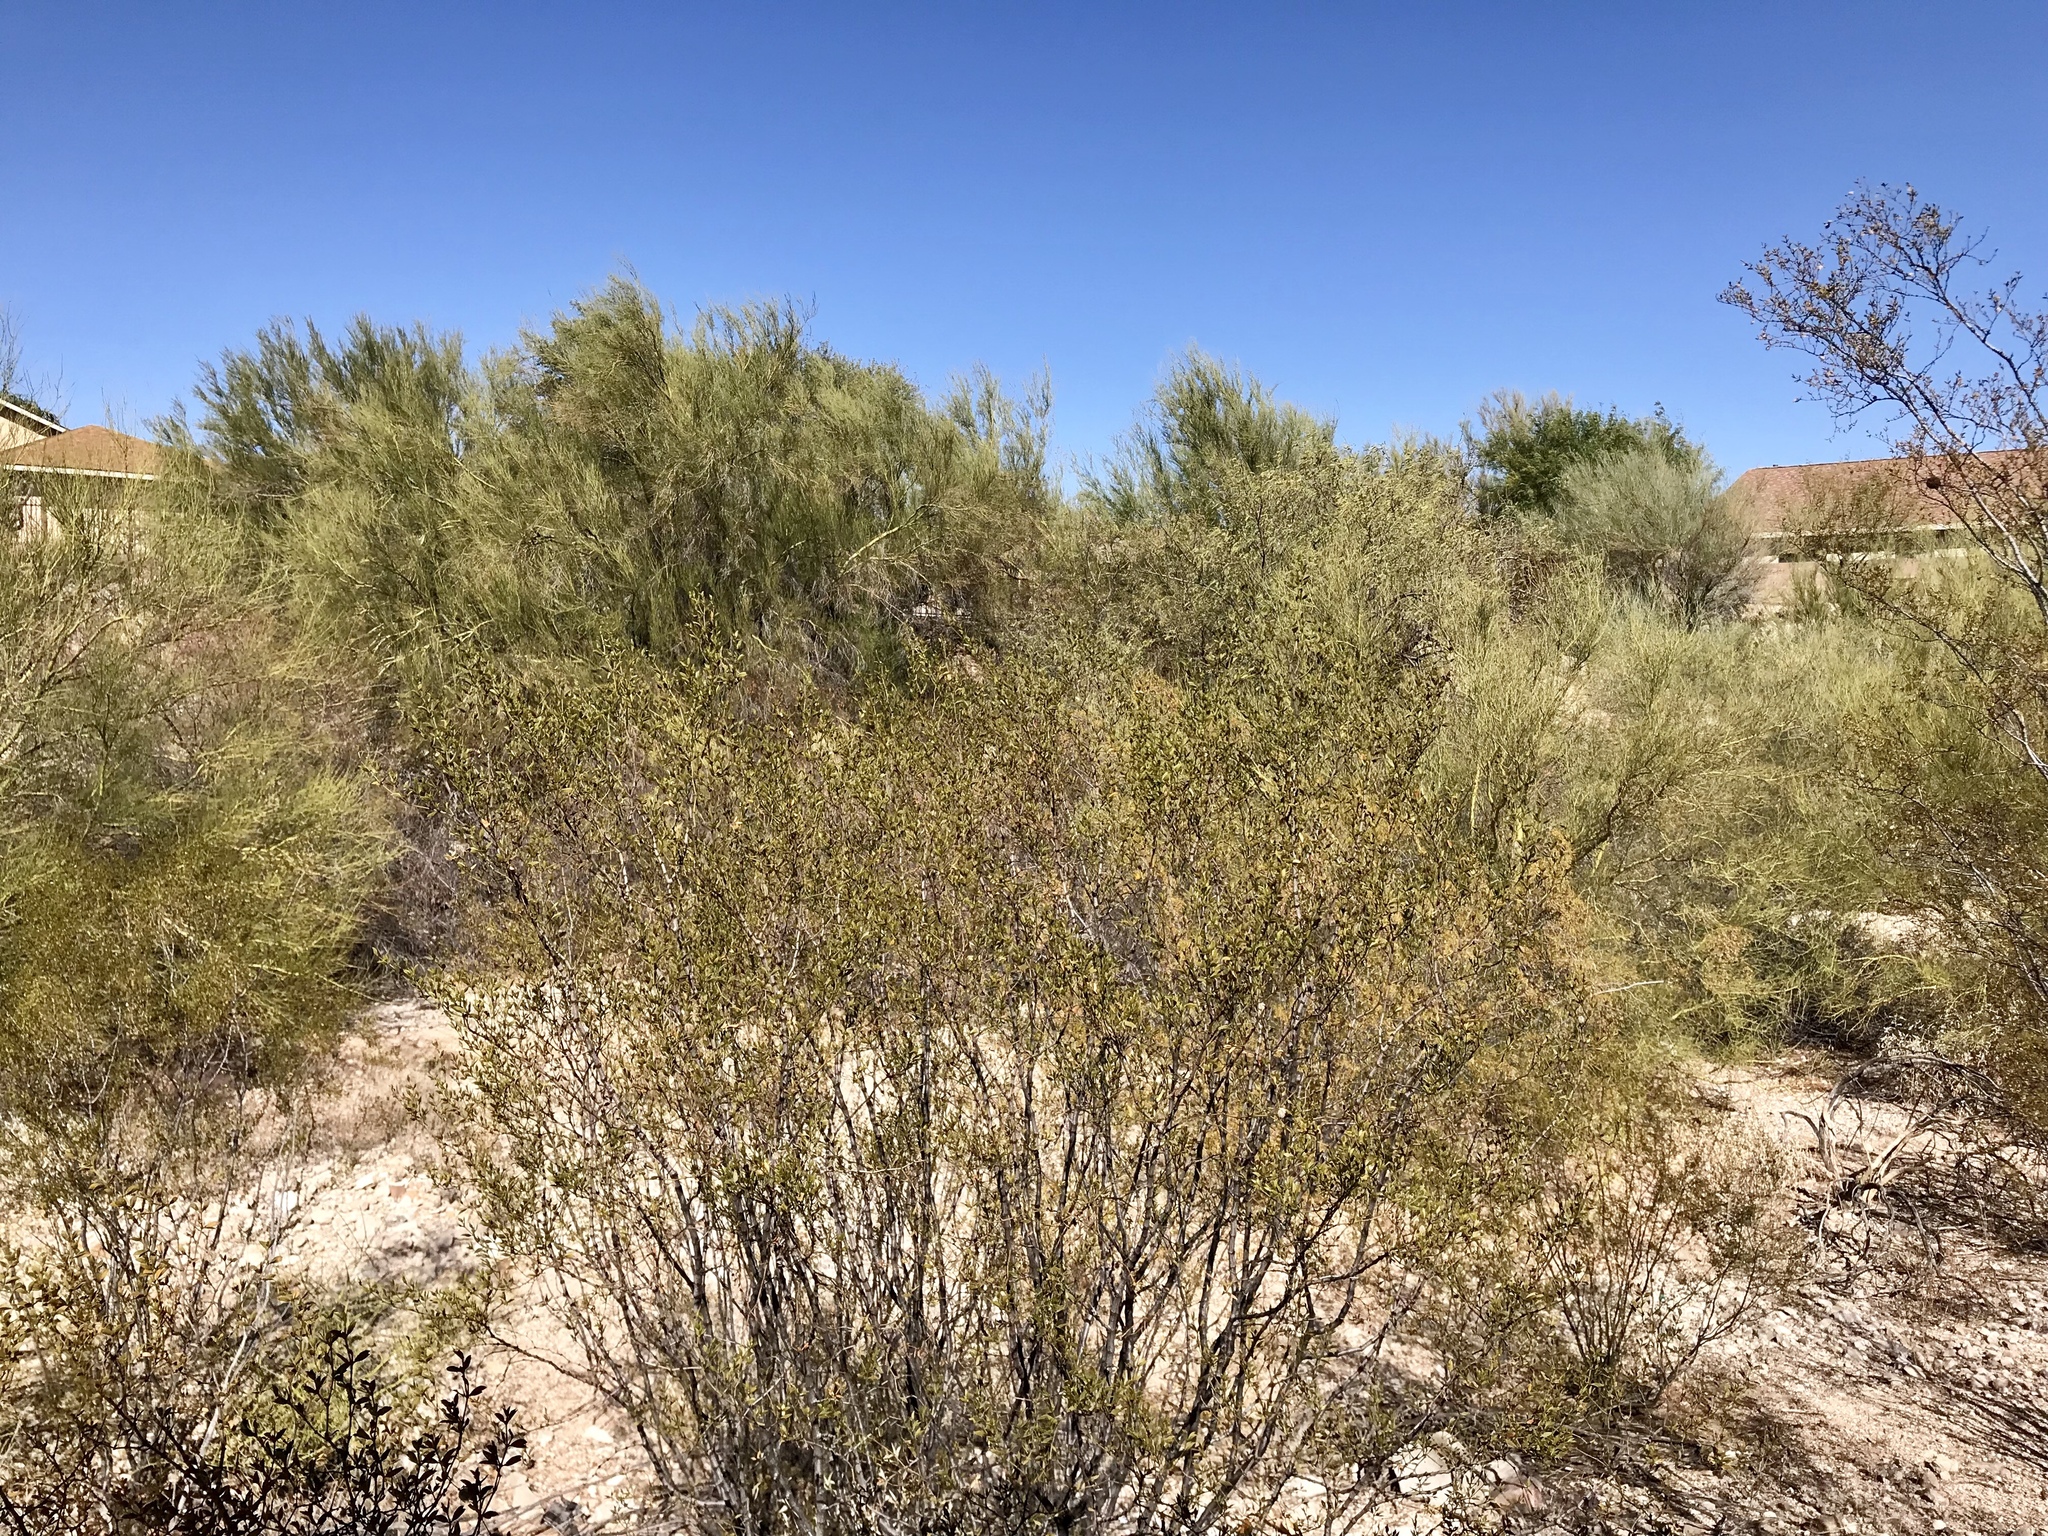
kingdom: Plantae
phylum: Tracheophyta
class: Magnoliopsida
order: Zygophyllales
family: Zygophyllaceae
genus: Larrea
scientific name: Larrea tridentata
